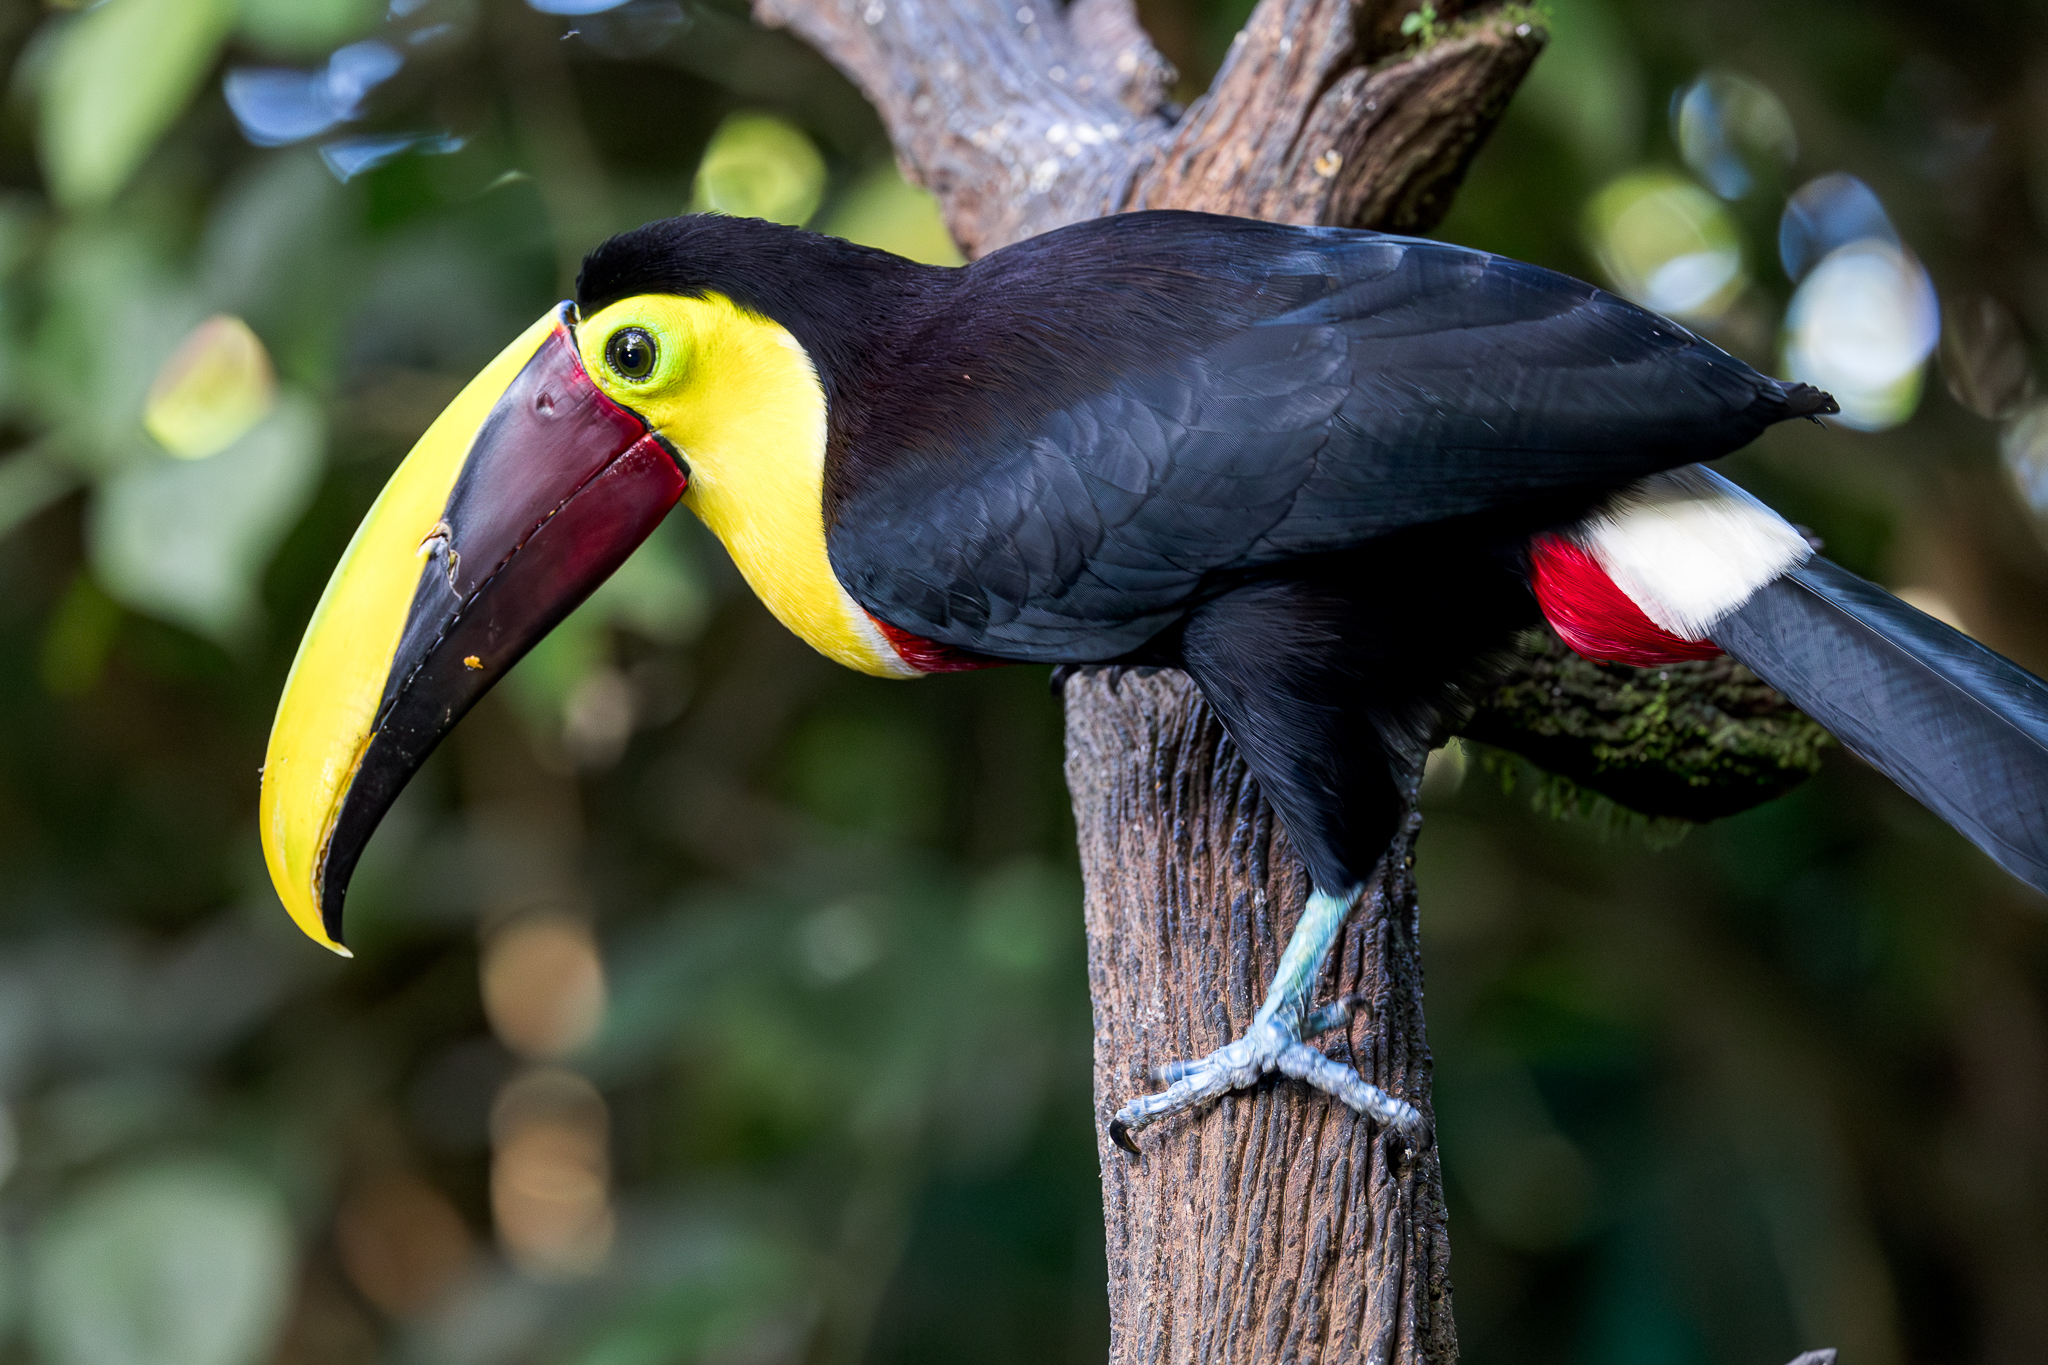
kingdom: Animalia
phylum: Chordata
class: Aves
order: Piciformes
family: Ramphastidae
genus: Ramphastos
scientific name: Ramphastos ambiguus
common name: Yellow-throated toucan
